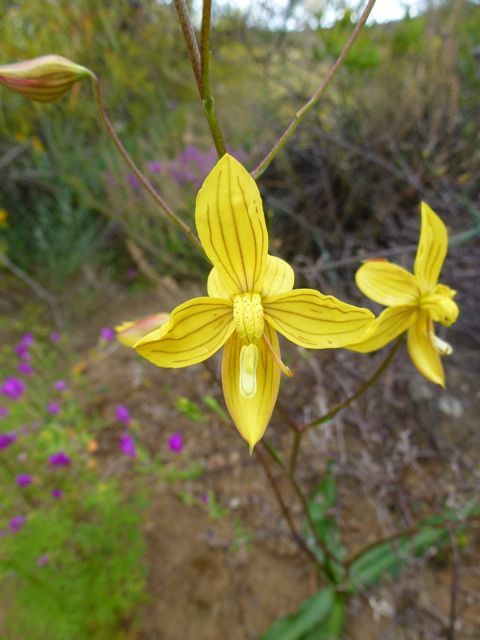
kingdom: Plantae
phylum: Tracheophyta
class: Liliopsida
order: Asparagales
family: Tecophilaeaceae
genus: Cyanella
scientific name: Cyanella lutea
